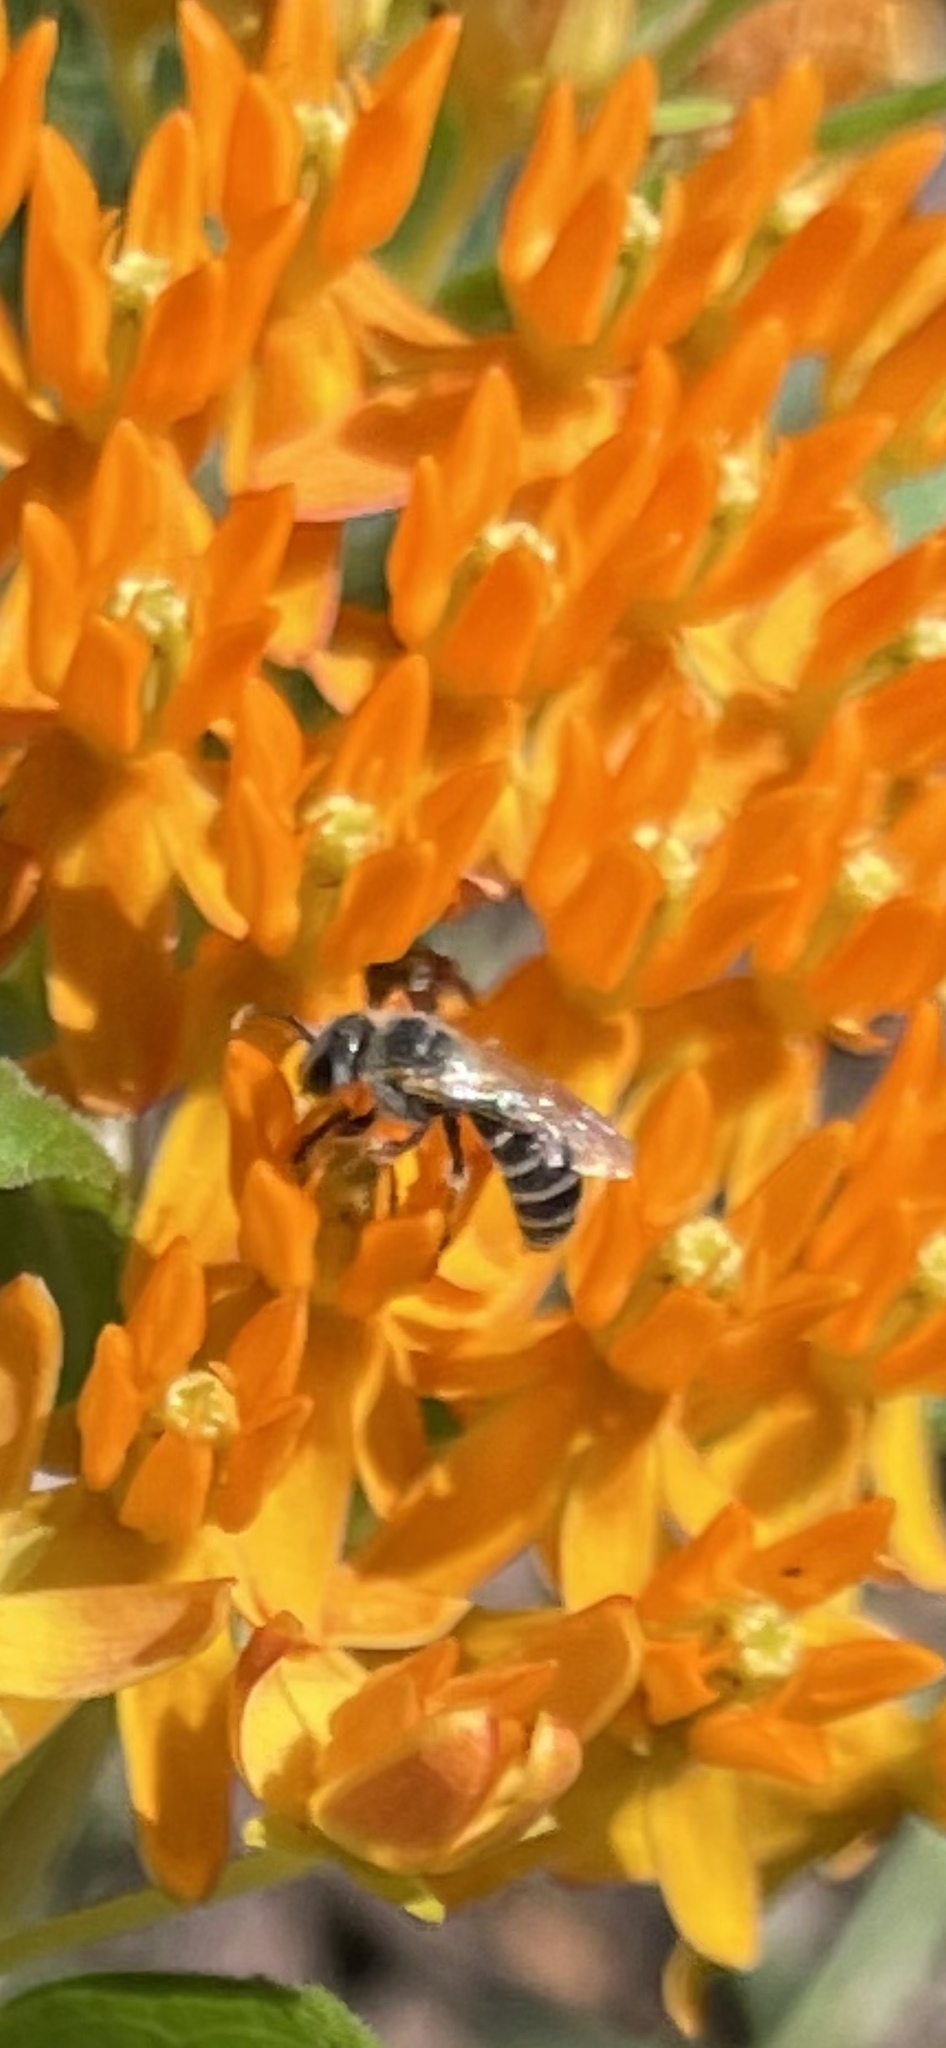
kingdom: Animalia
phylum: Arthropoda
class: Insecta
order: Hymenoptera
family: Halictidae
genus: Halictus
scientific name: Halictus ligatus
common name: Ligated furrow bee
